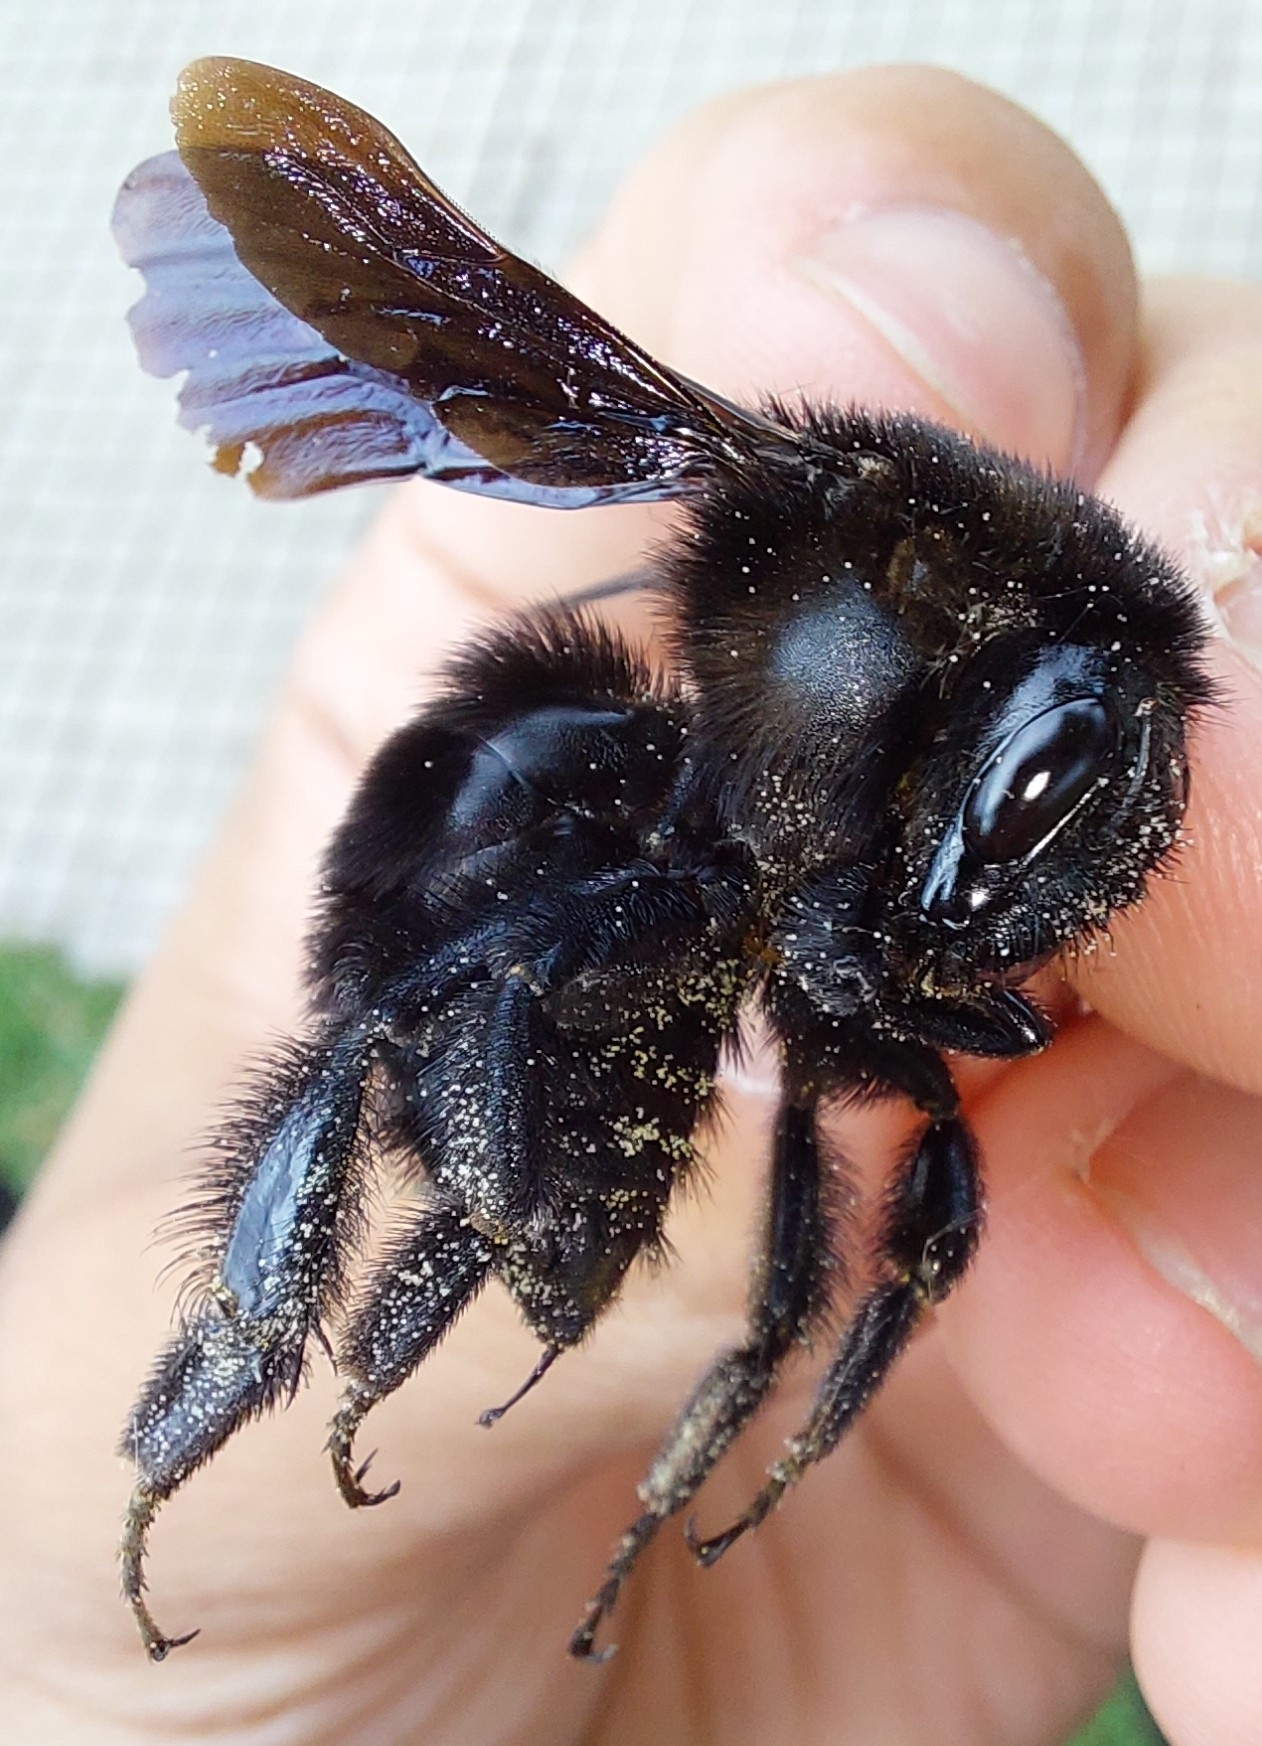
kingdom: Animalia
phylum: Arthropoda
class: Insecta
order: Hymenoptera
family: Apidae
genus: Bombus
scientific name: Bombus morio
